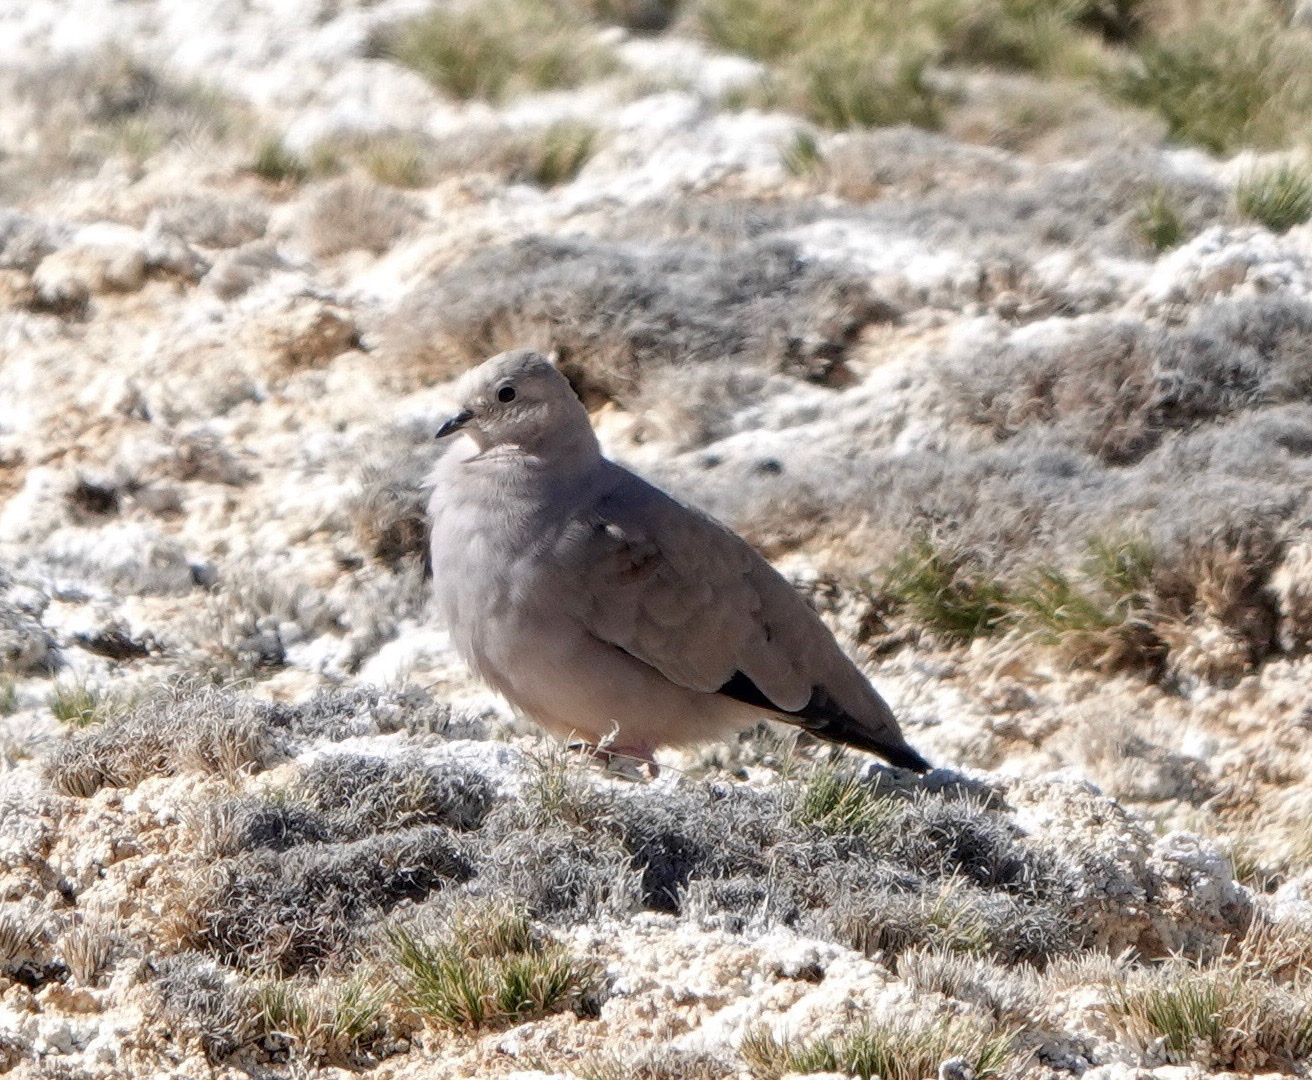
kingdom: Animalia
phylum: Chordata
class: Aves
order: Columbiformes
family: Columbidae
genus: Metriopelia
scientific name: Metriopelia aymara
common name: Golden-spotted ground dove
